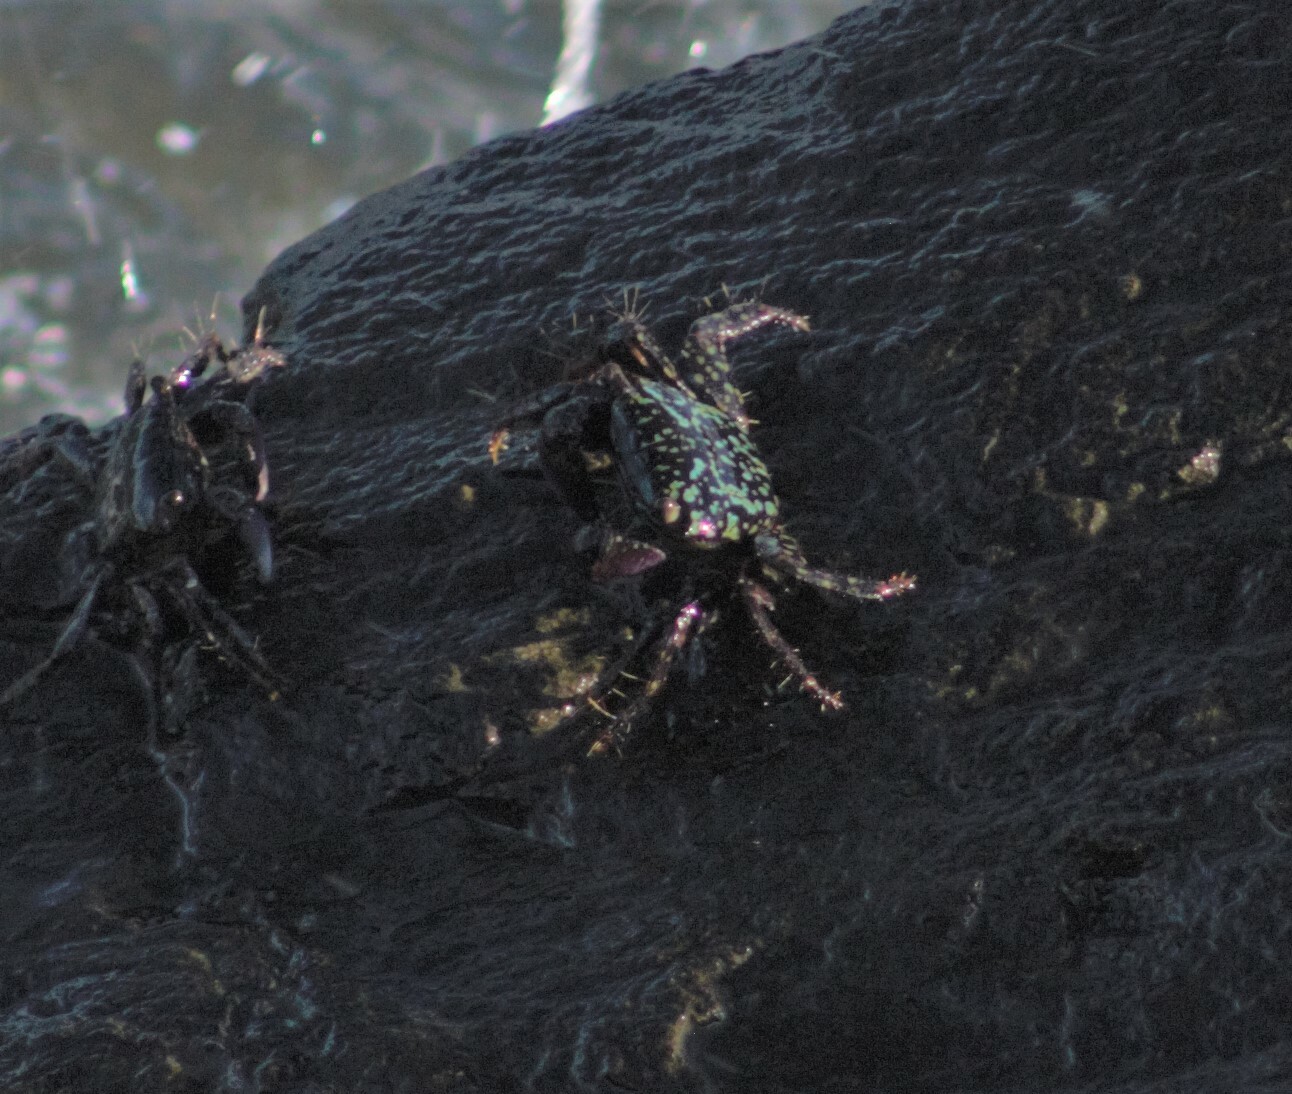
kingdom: Animalia
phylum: Arthropoda
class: Malacostraca
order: Decapoda
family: Grapsidae
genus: Metopograpsus
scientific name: Metopograpsus frontalis
